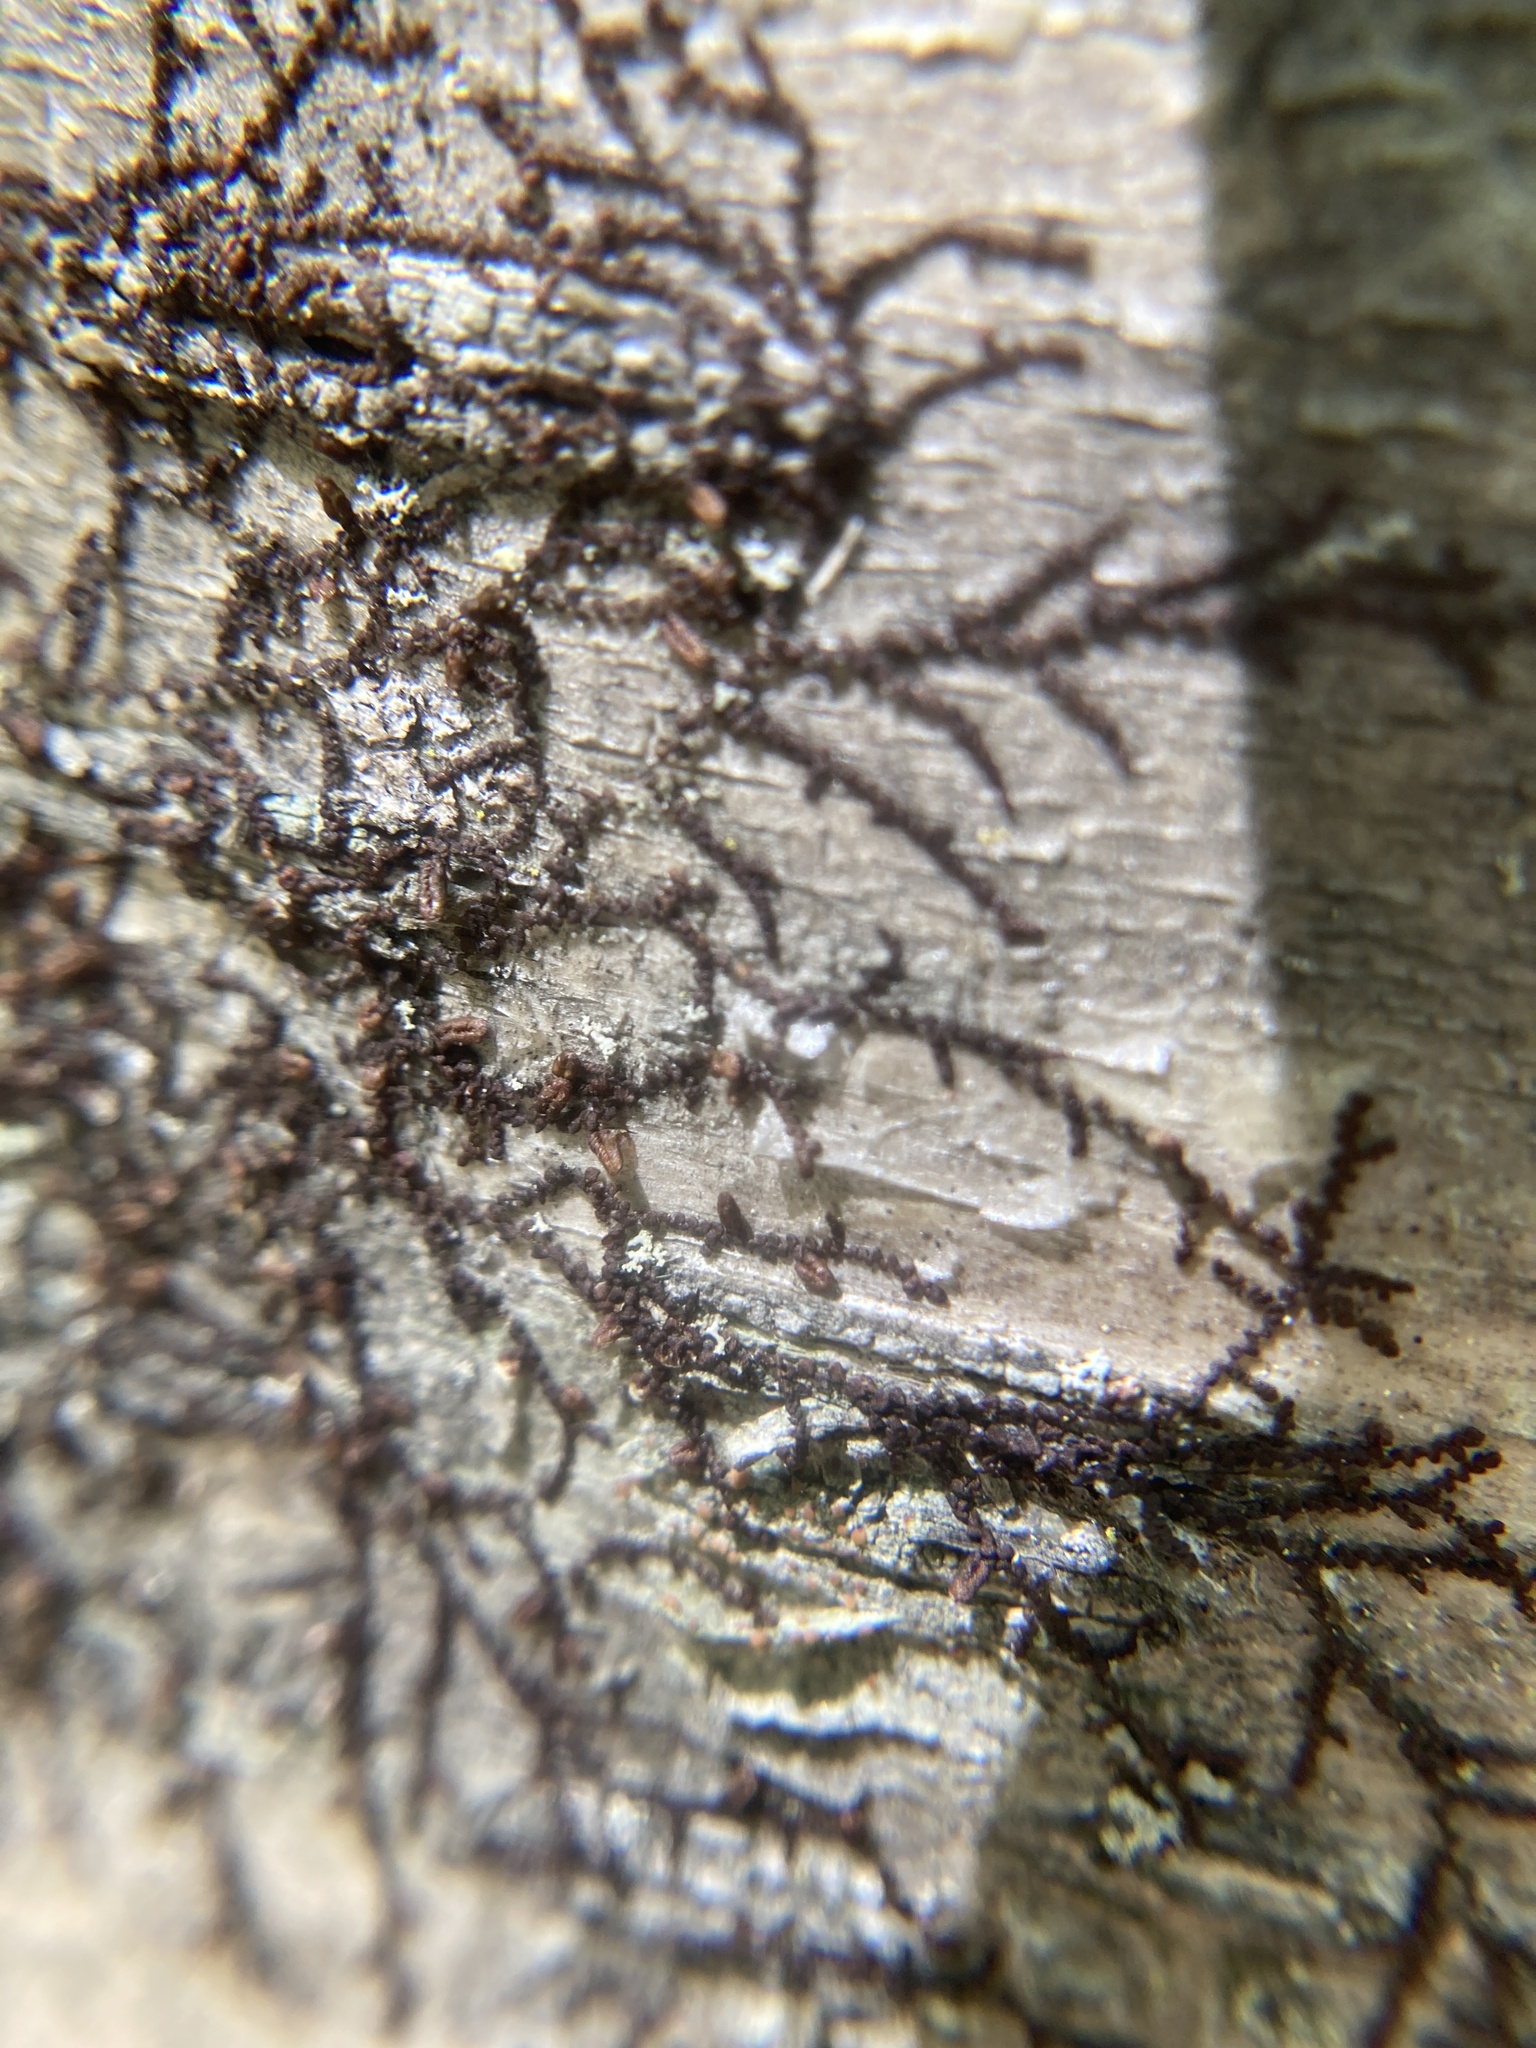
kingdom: Plantae
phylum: Marchantiophyta
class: Jungermanniopsida
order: Porellales
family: Frullaniaceae
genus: Frullania
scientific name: Frullania eboracensis
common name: New york scalewort
